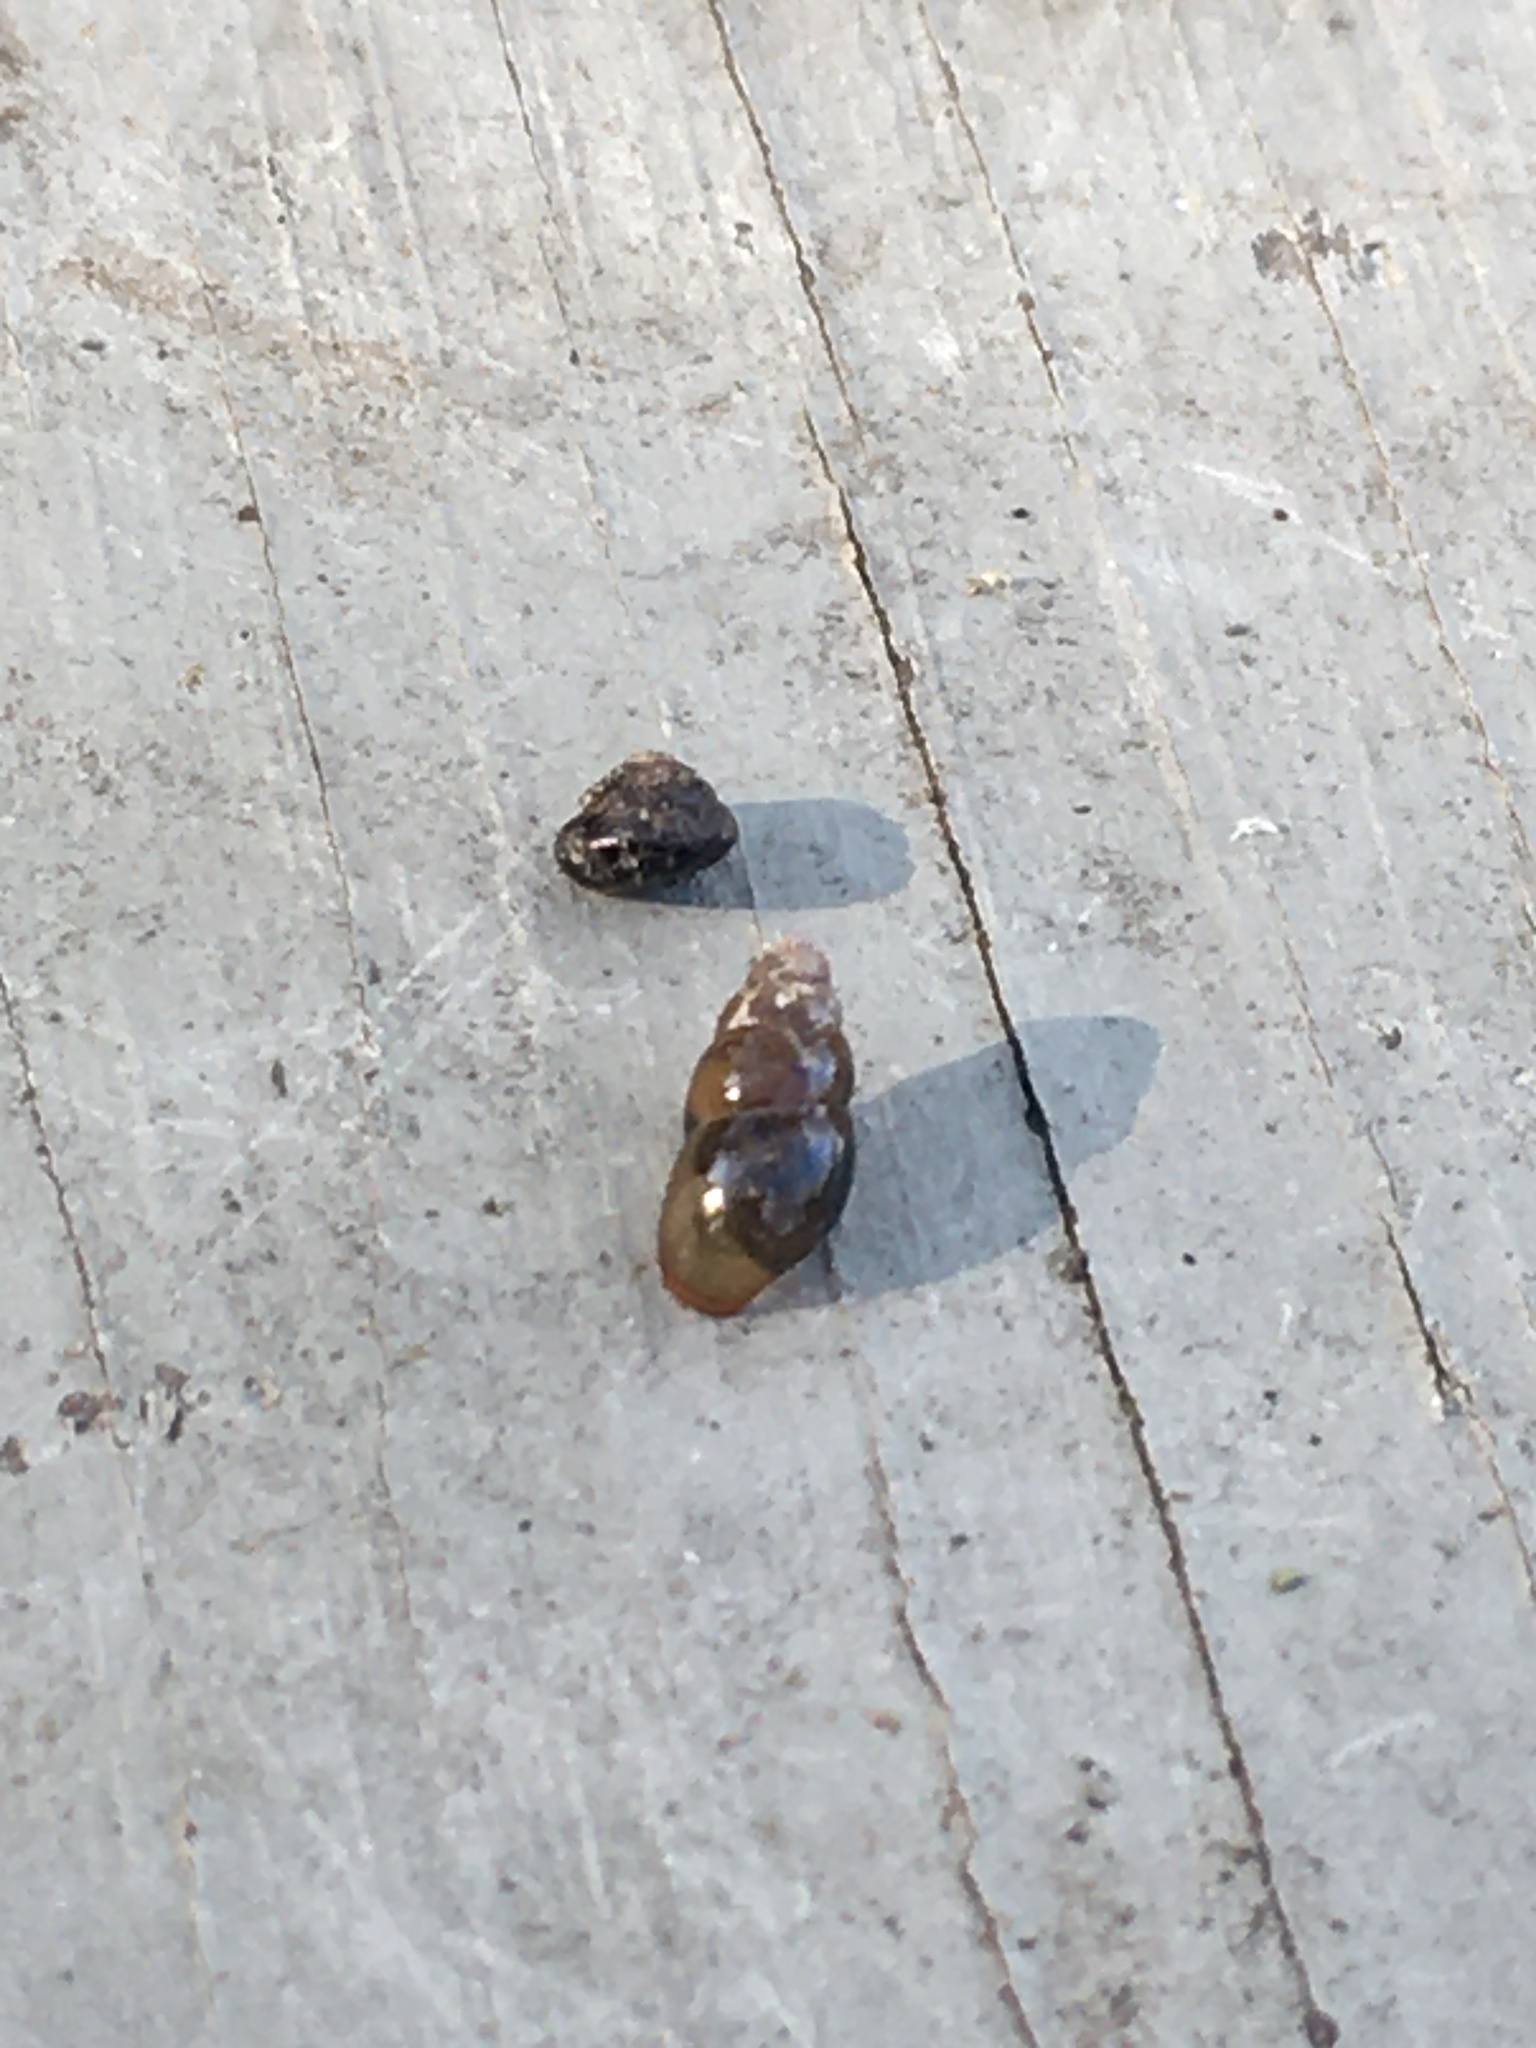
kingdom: Animalia
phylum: Mollusca
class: Gastropoda
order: Stylommatophora
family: Cochlicopidae
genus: Cochlicopa
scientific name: Cochlicopa lubrica
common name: Glossy pillar snail
